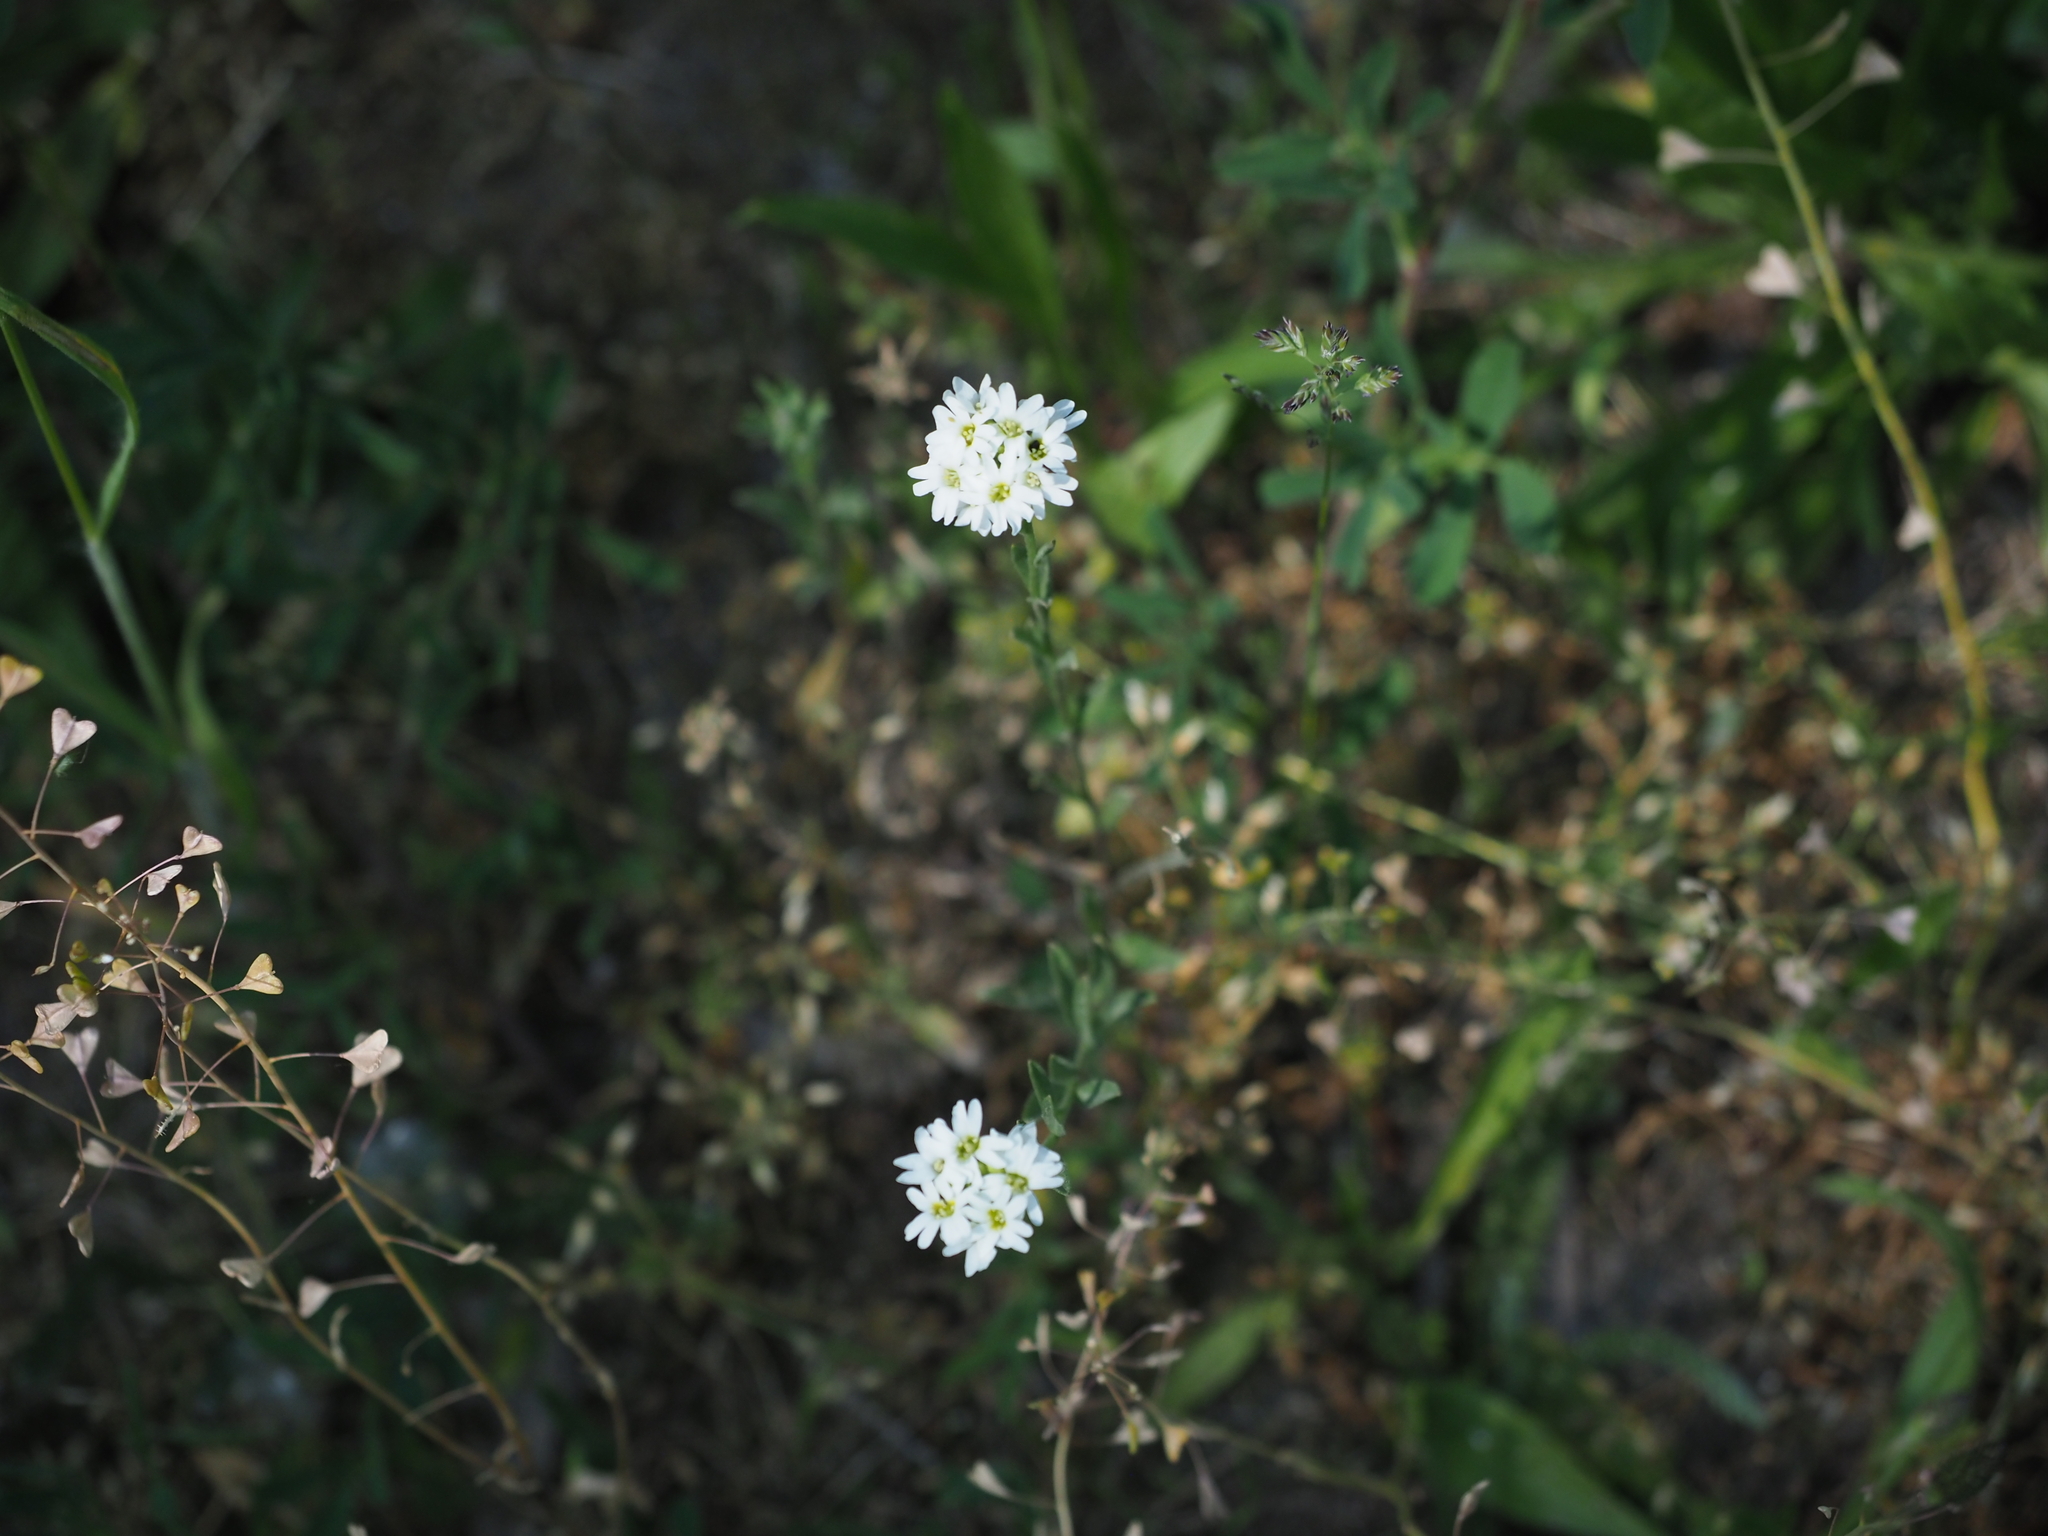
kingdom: Plantae
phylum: Tracheophyta
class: Magnoliopsida
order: Brassicales
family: Brassicaceae
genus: Berteroa
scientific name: Berteroa incana
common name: Hoary alison
